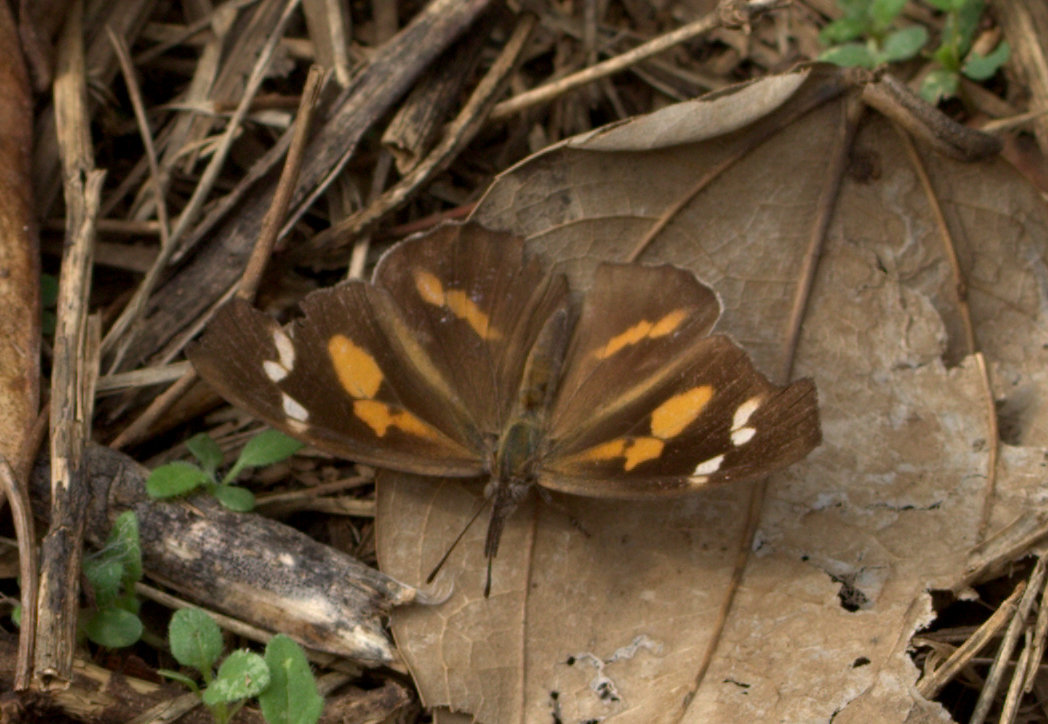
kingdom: Animalia
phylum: Arthropoda
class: Insecta
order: Lepidoptera
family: Nymphalidae
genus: Libythea
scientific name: Libythea laius
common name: African snout
